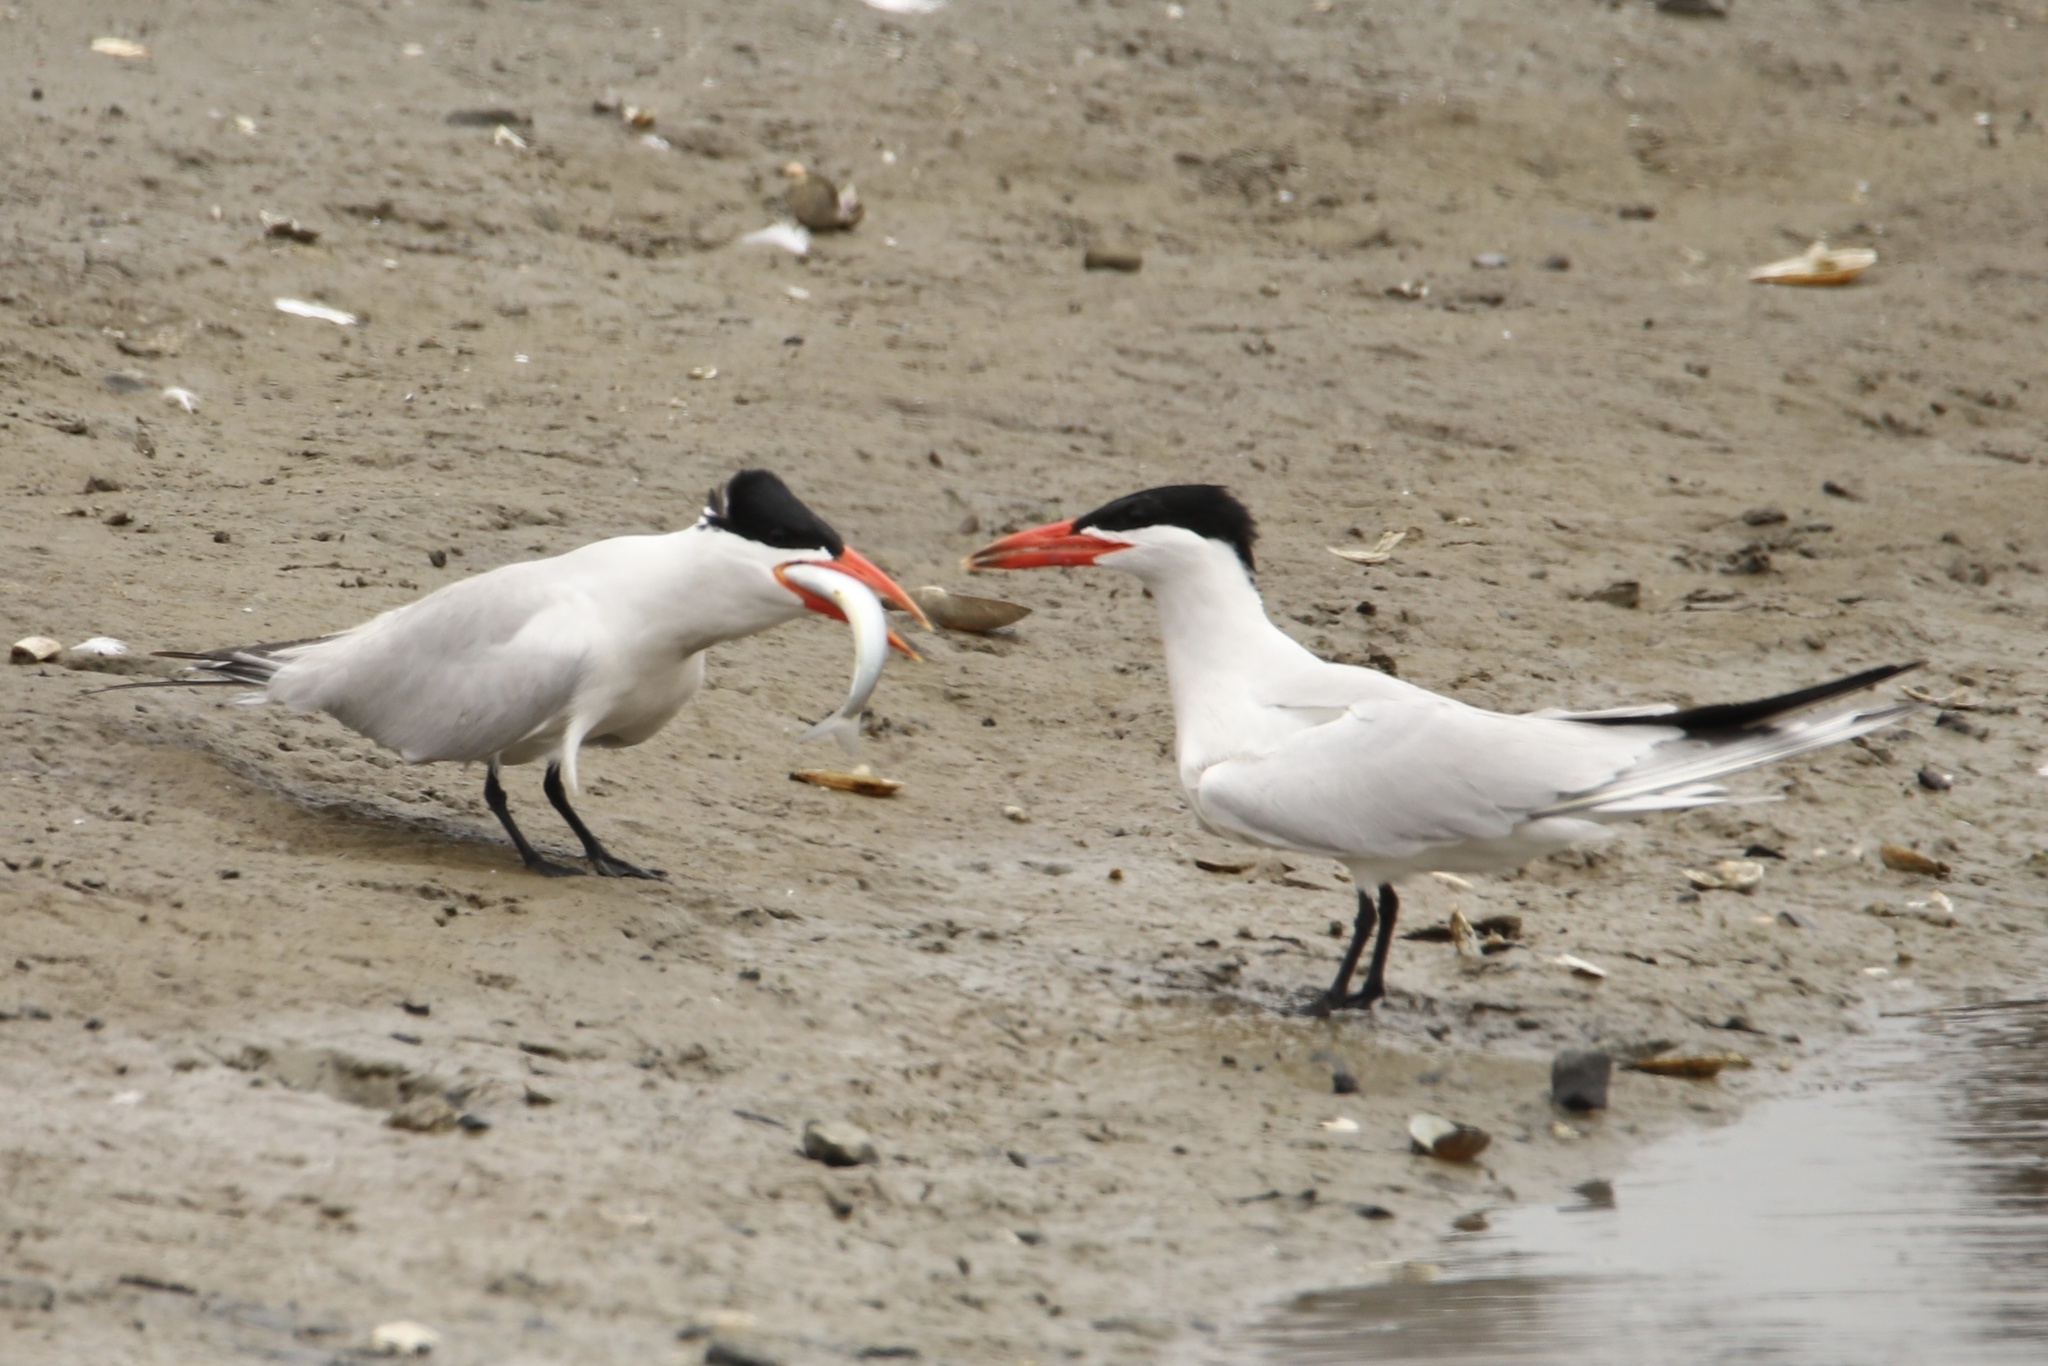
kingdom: Animalia
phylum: Chordata
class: Aves
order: Charadriiformes
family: Laridae
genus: Hydroprogne
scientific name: Hydroprogne caspia
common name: Caspian tern
